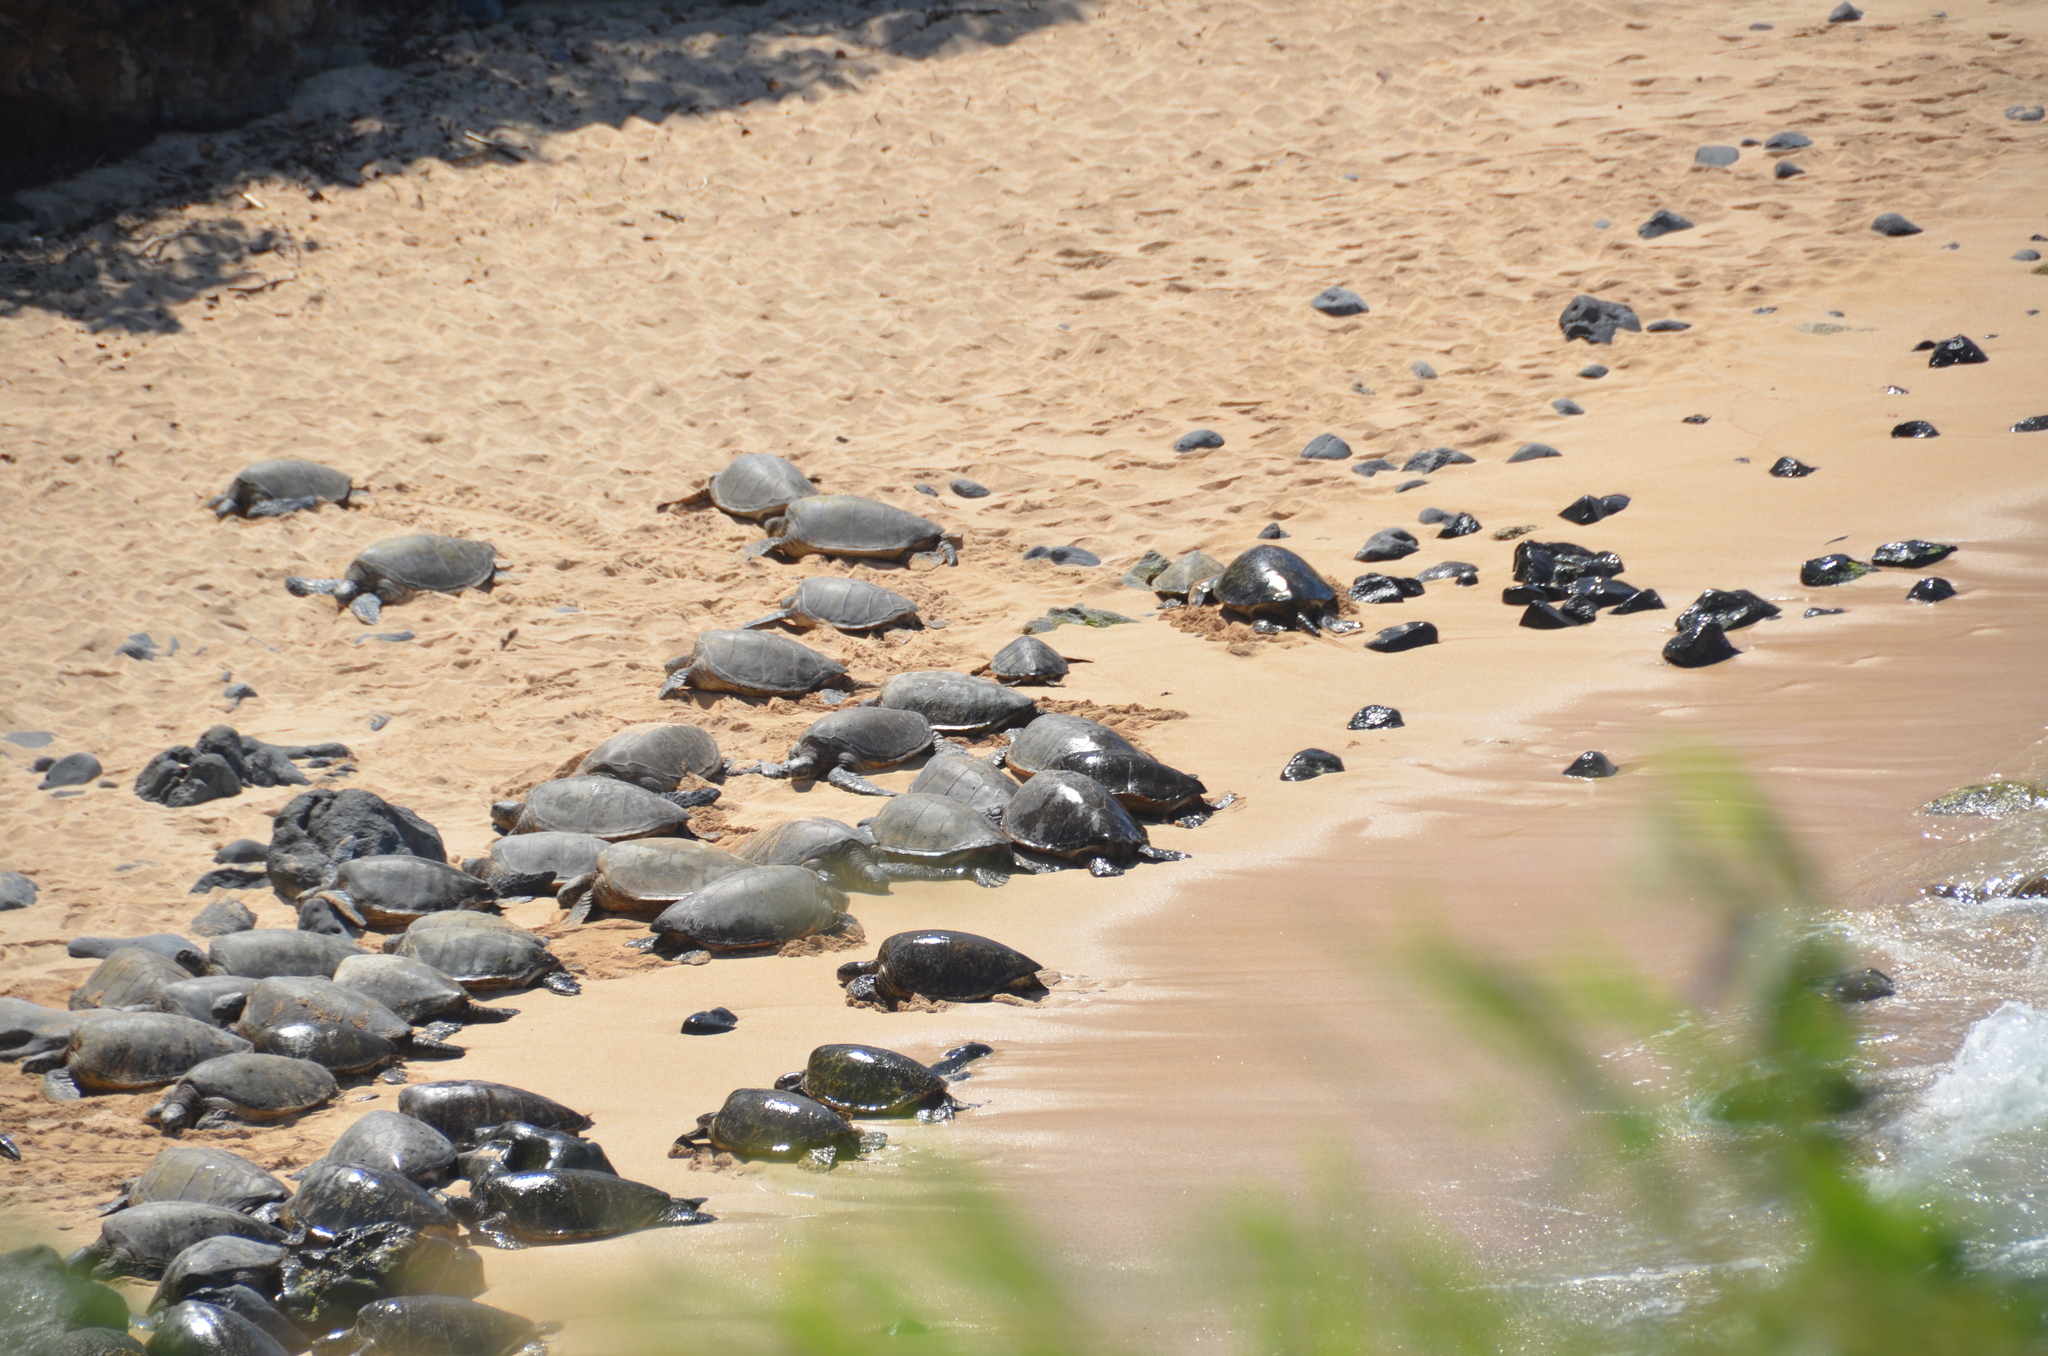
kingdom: Animalia
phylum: Chordata
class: Testudines
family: Cheloniidae
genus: Chelonia
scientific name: Chelonia mydas
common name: Green turtle
